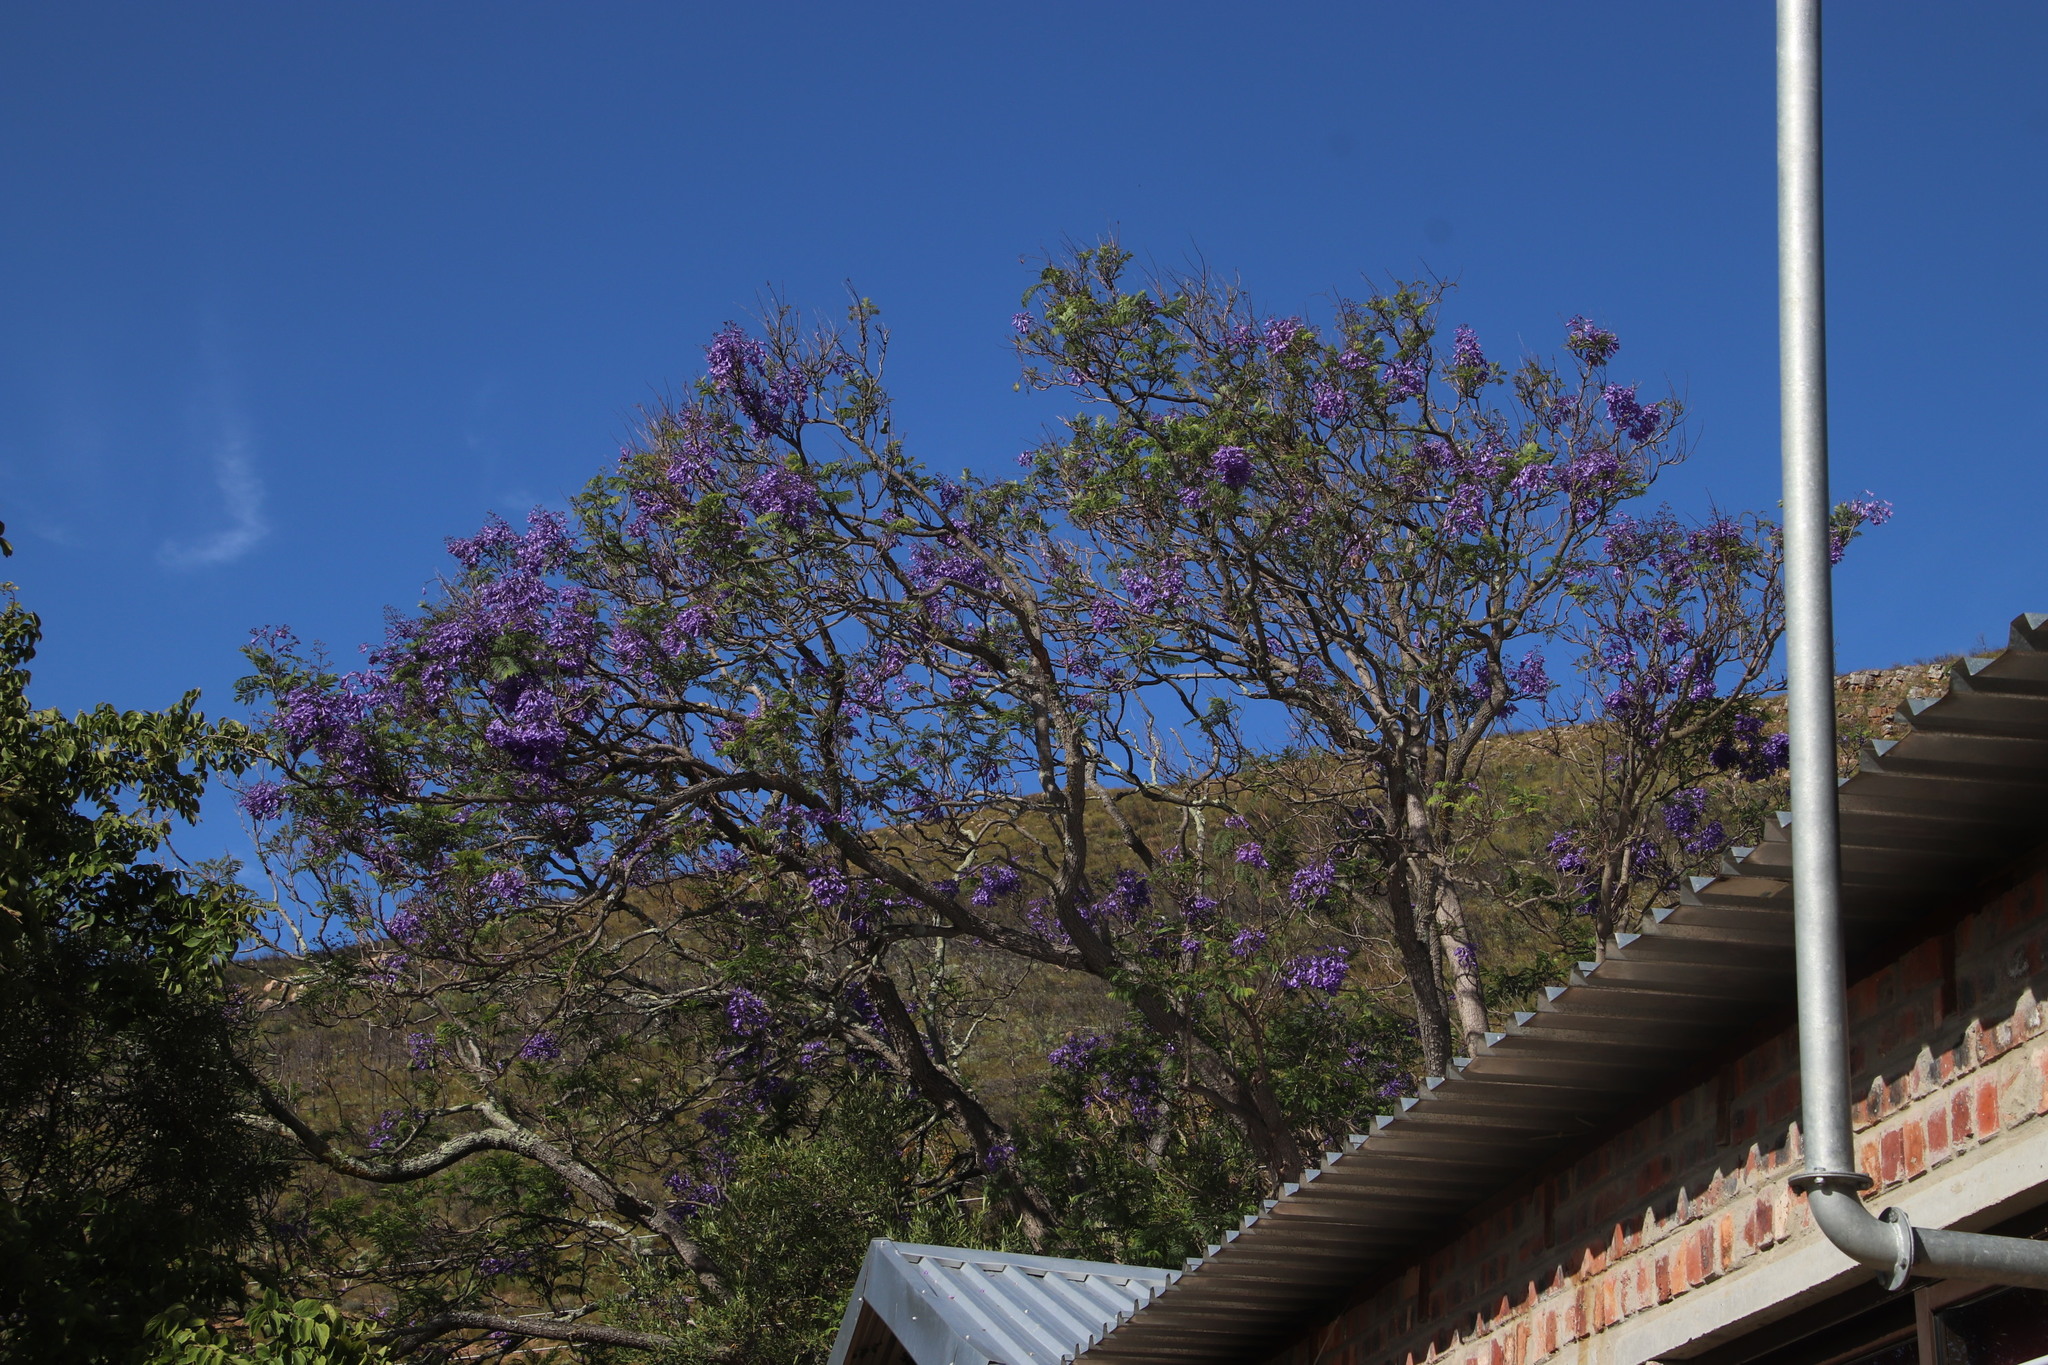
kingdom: Plantae
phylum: Tracheophyta
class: Magnoliopsida
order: Lamiales
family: Bignoniaceae
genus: Jacaranda
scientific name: Jacaranda mimosifolia
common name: Black poui
